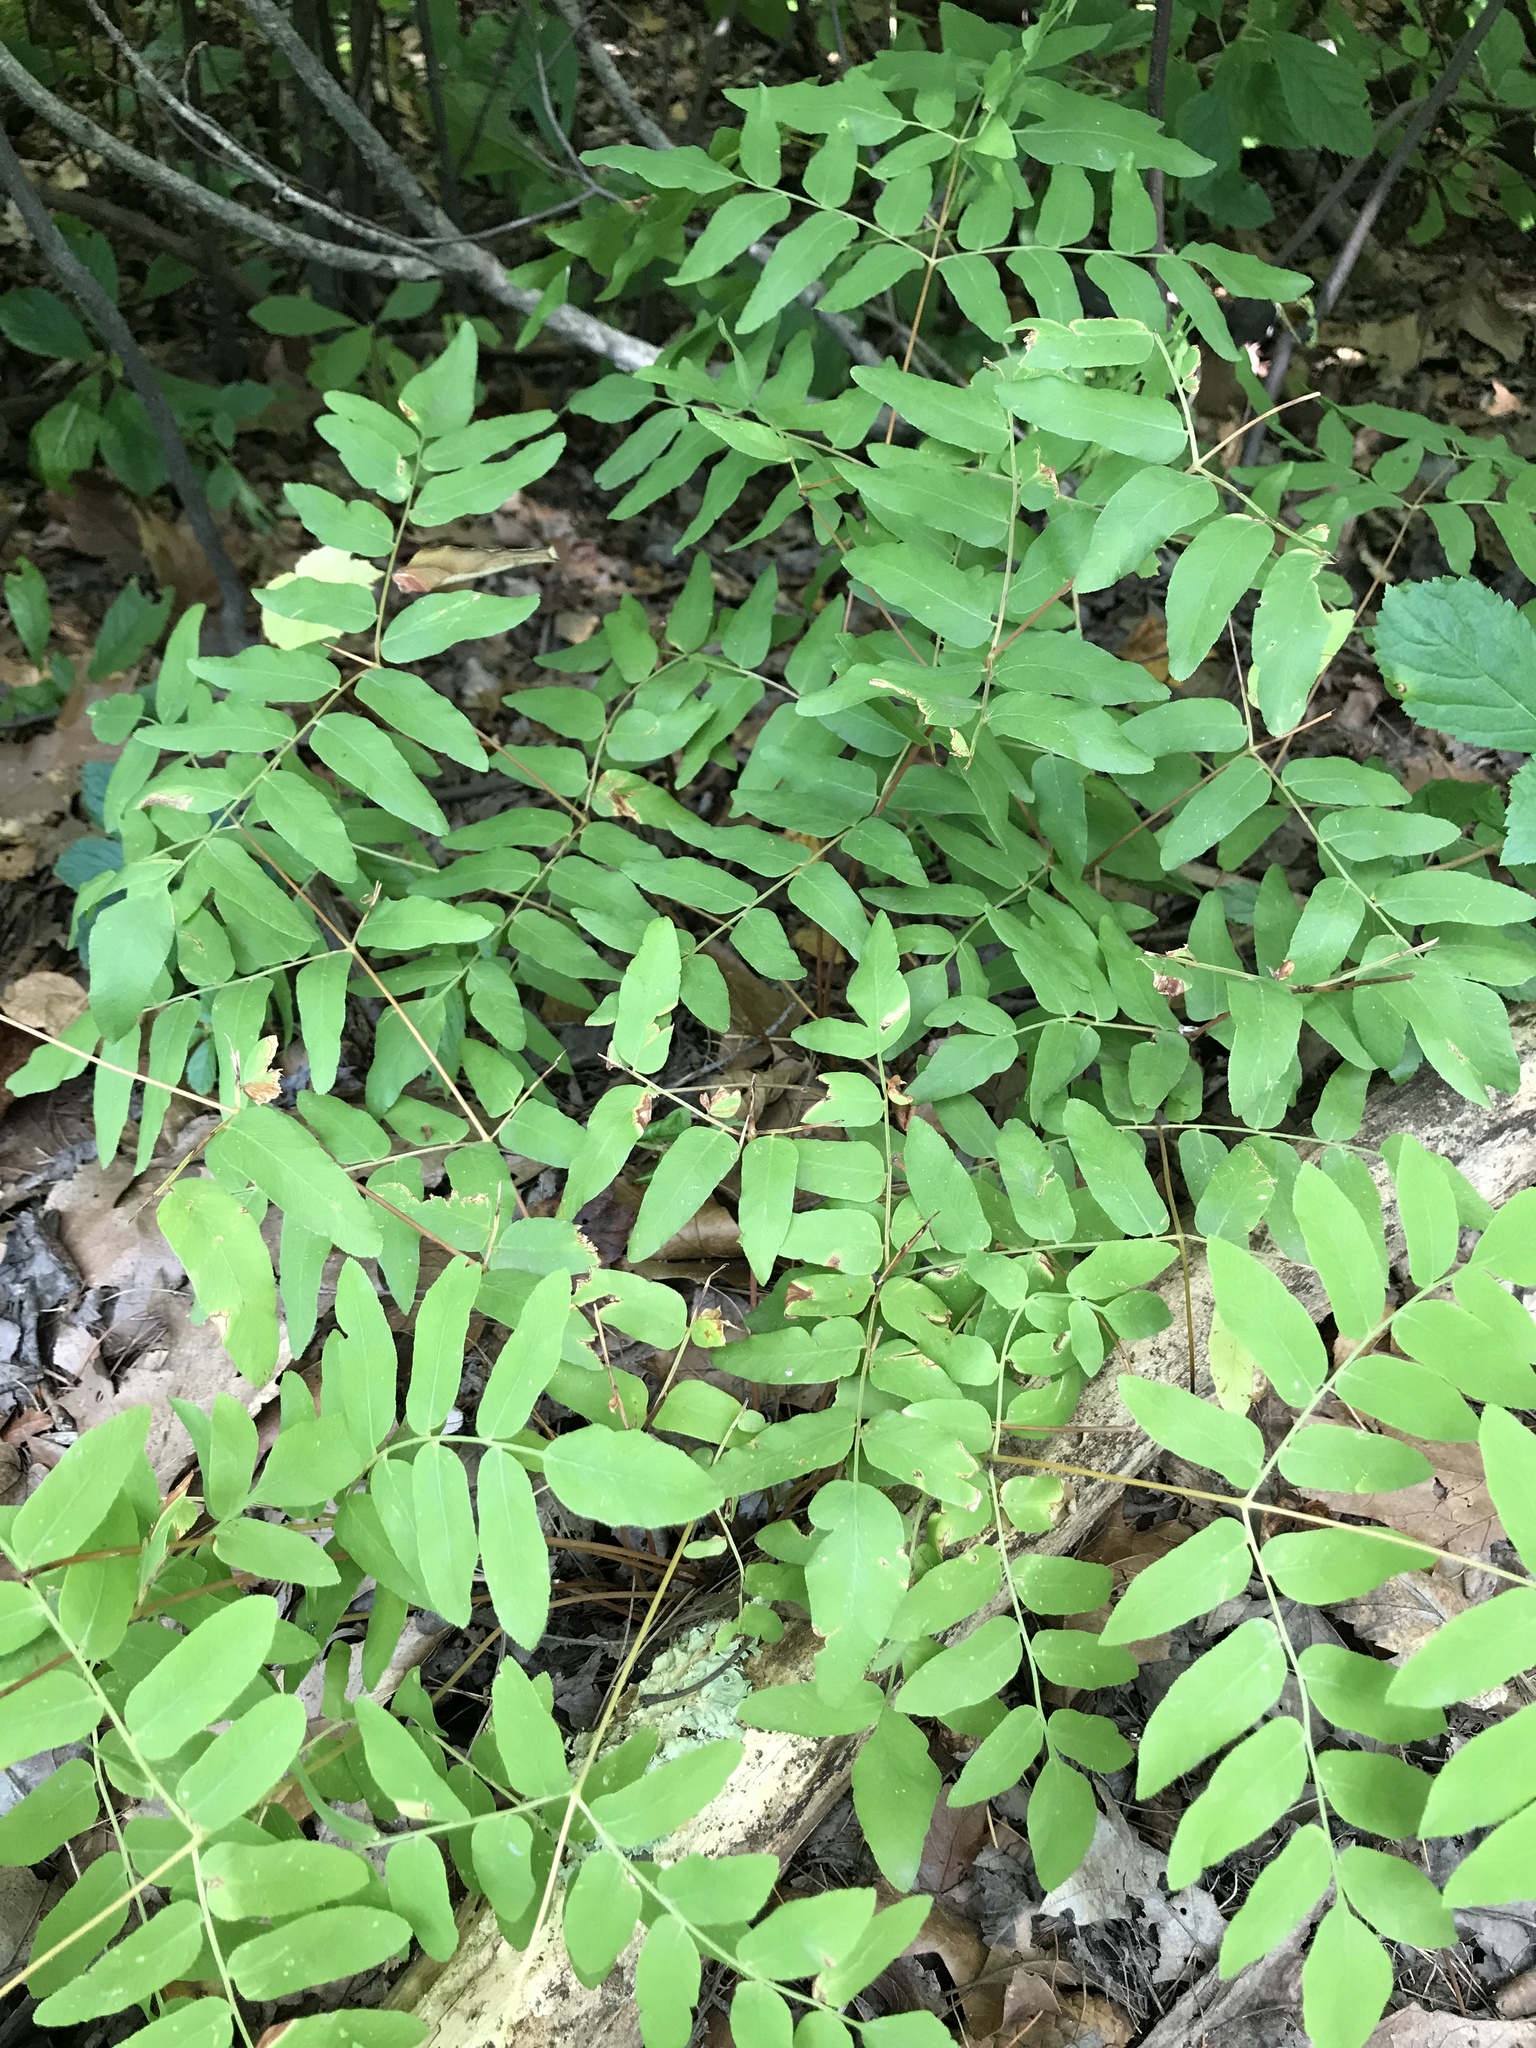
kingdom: Plantae
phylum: Tracheophyta
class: Polypodiopsida
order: Osmundales
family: Osmundaceae
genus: Osmunda
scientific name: Osmunda spectabilis
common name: American royal fern
